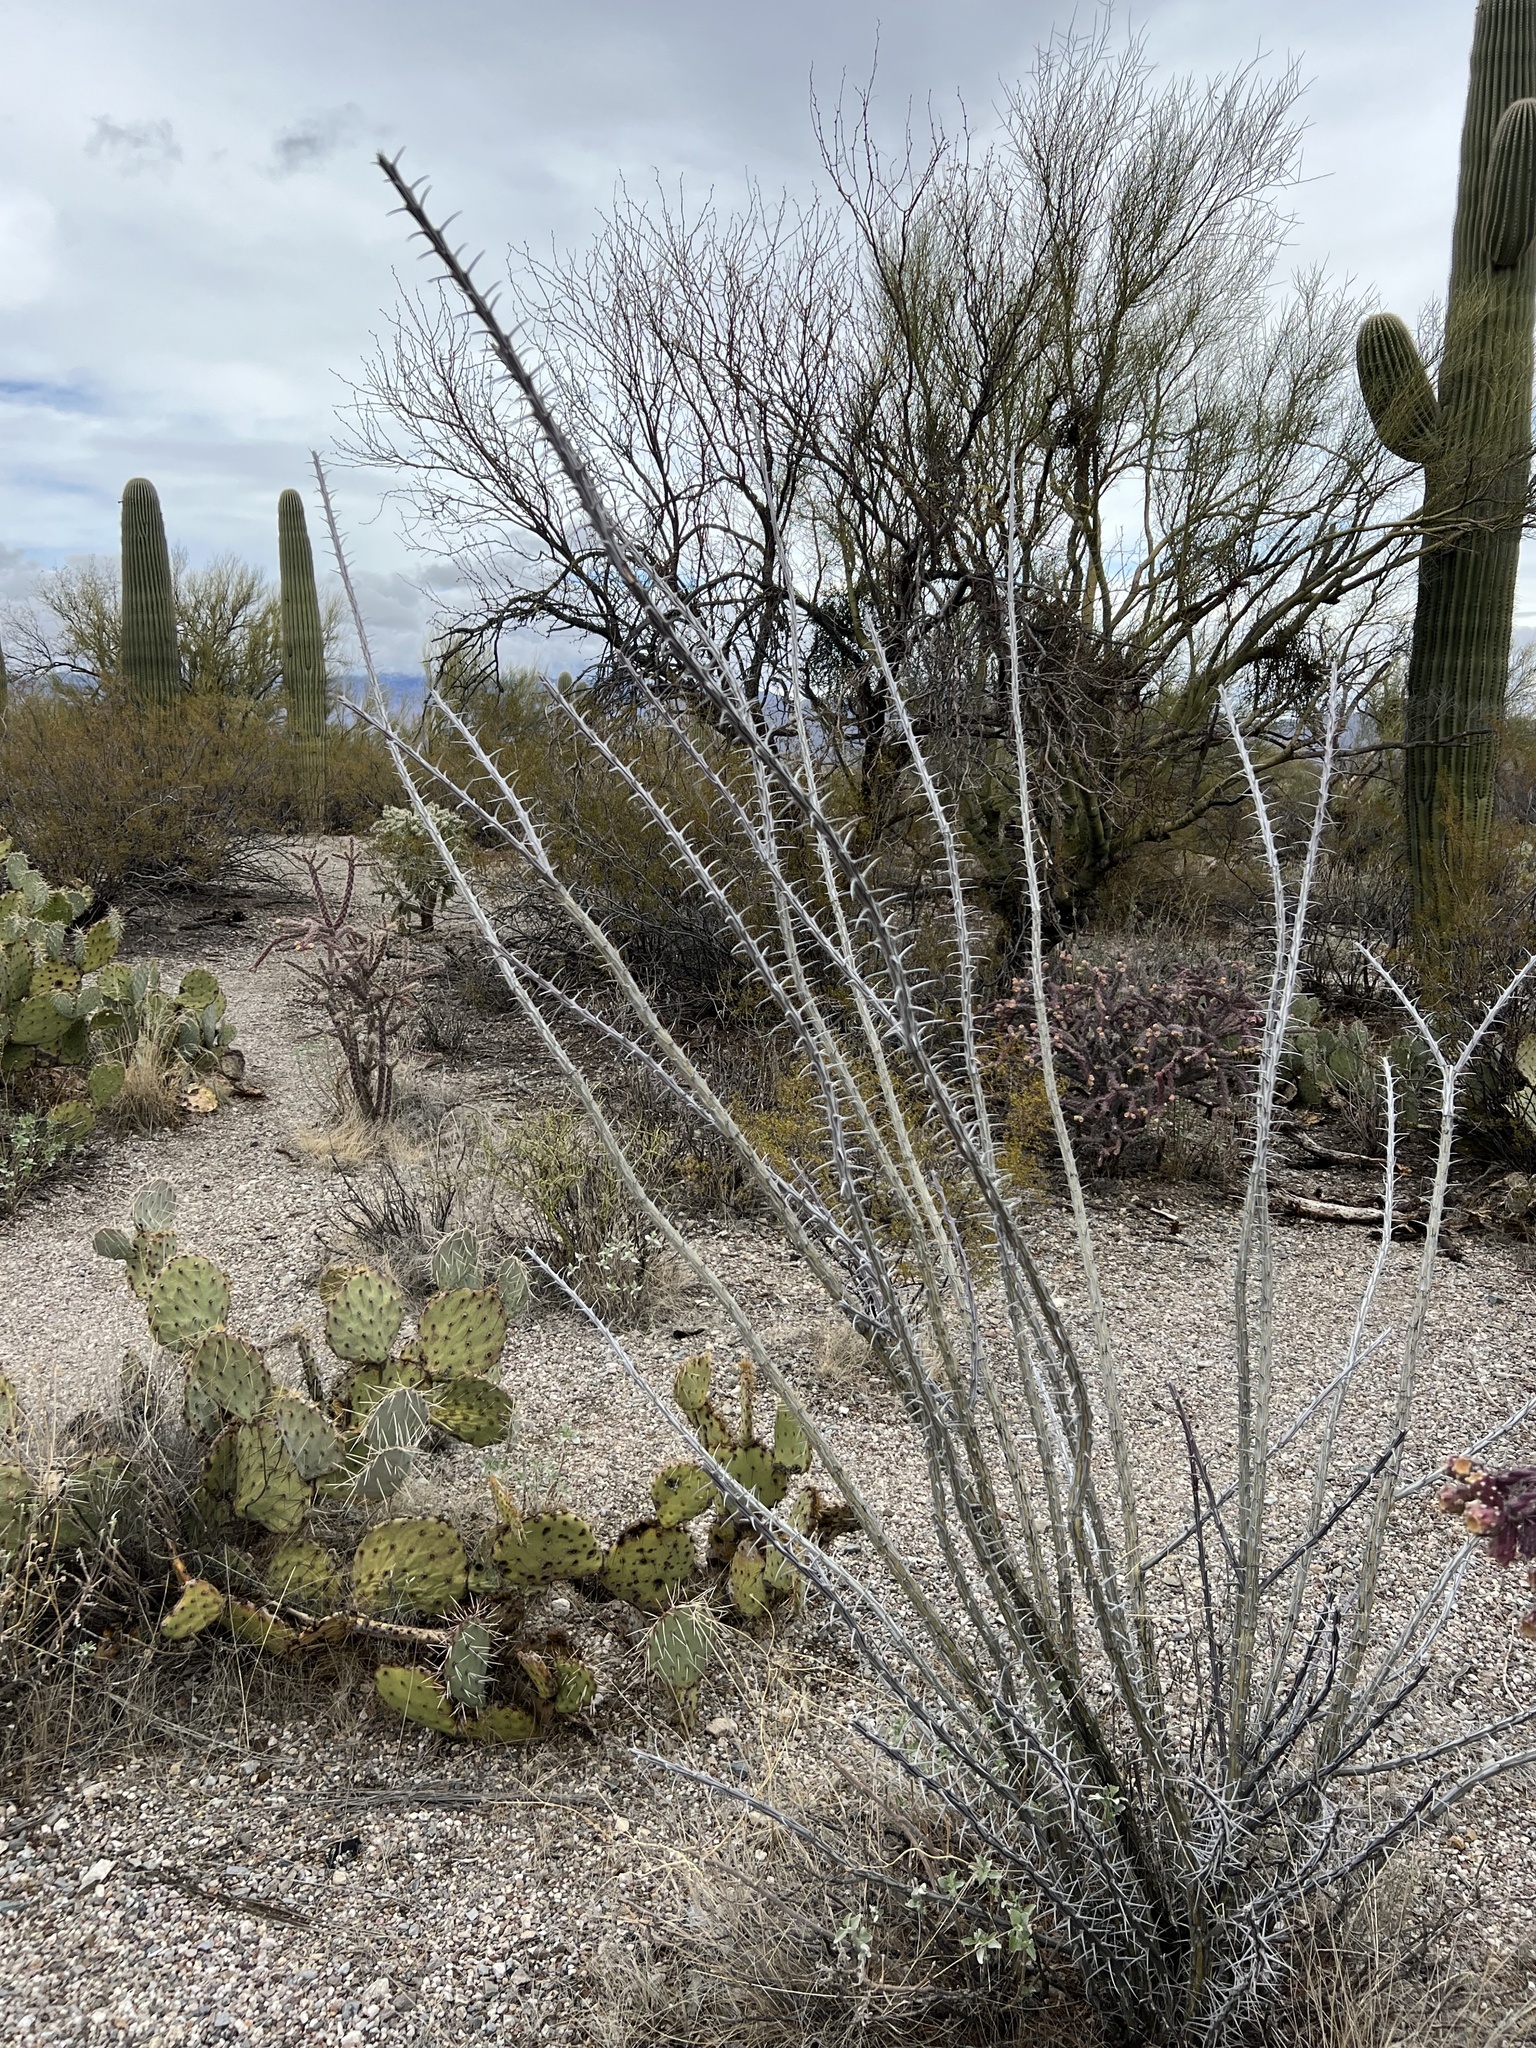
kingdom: Plantae
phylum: Tracheophyta
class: Magnoliopsida
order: Ericales
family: Fouquieriaceae
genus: Fouquieria
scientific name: Fouquieria splendens
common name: Vine-cactus
